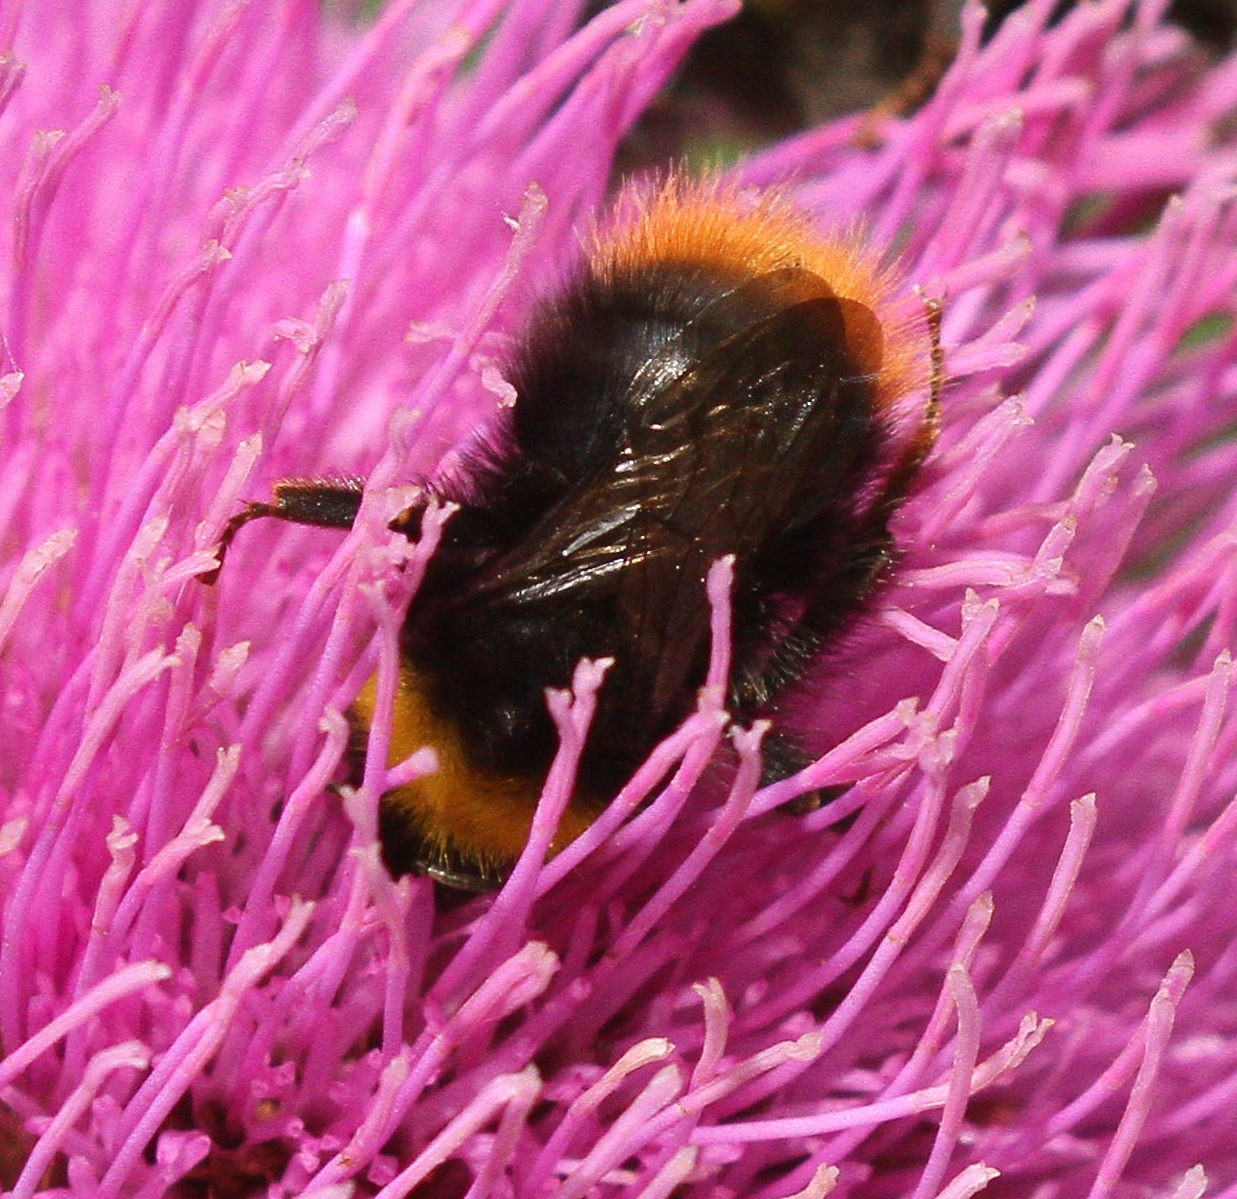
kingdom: Animalia
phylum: Arthropoda
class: Insecta
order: Hymenoptera
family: Apidae
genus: Bombus
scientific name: Bombus pratorum
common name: Early humble-bee
